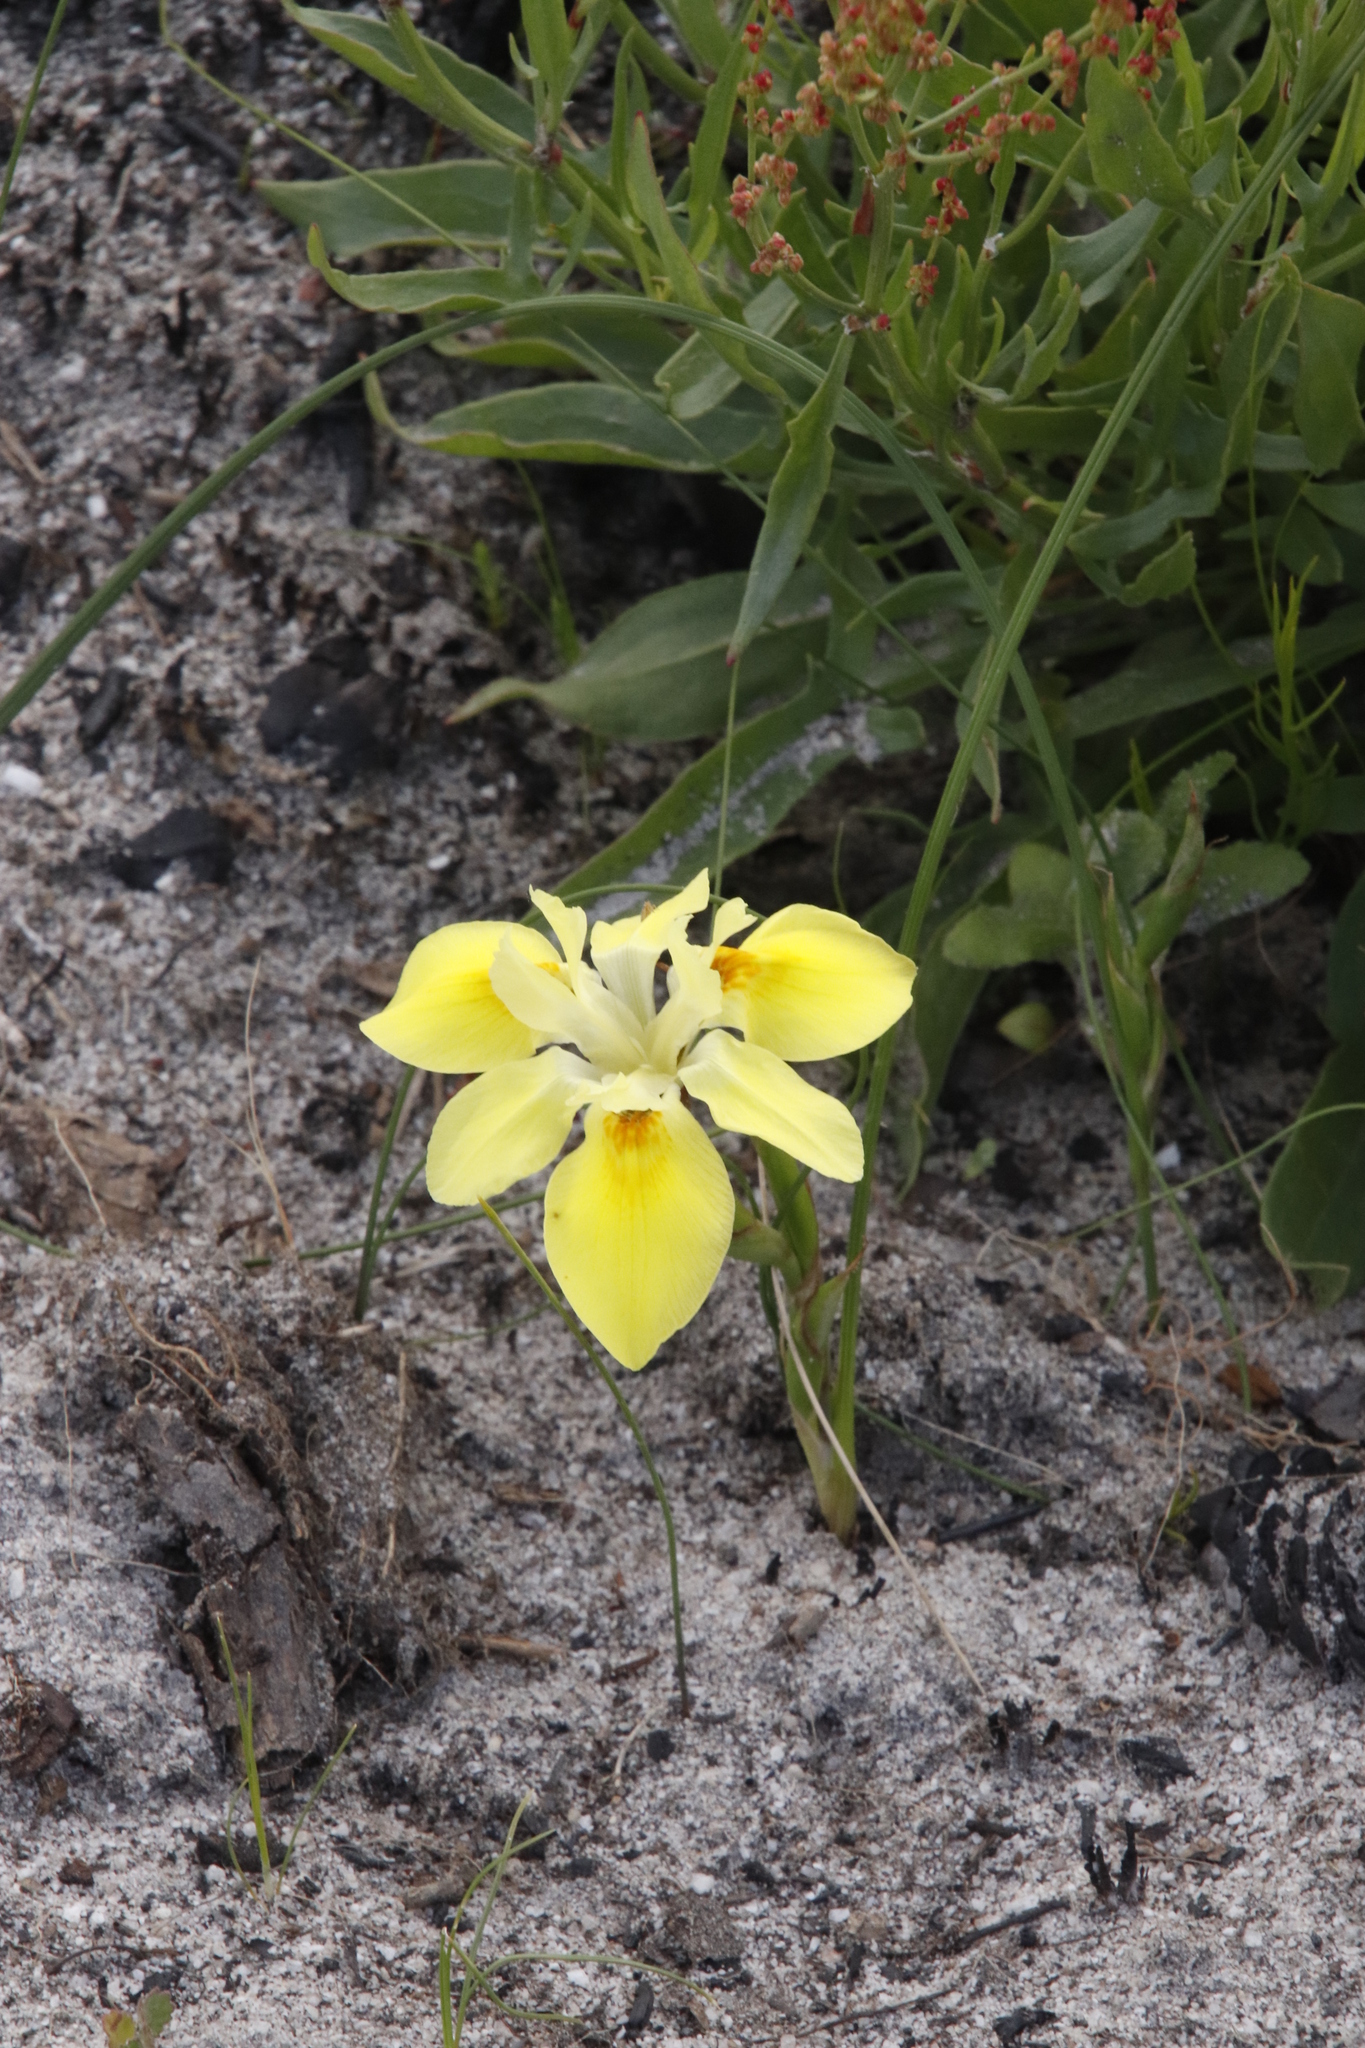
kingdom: Plantae
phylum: Tracheophyta
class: Liliopsida
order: Asparagales
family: Iridaceae
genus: Moraea
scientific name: Moraea fugax
